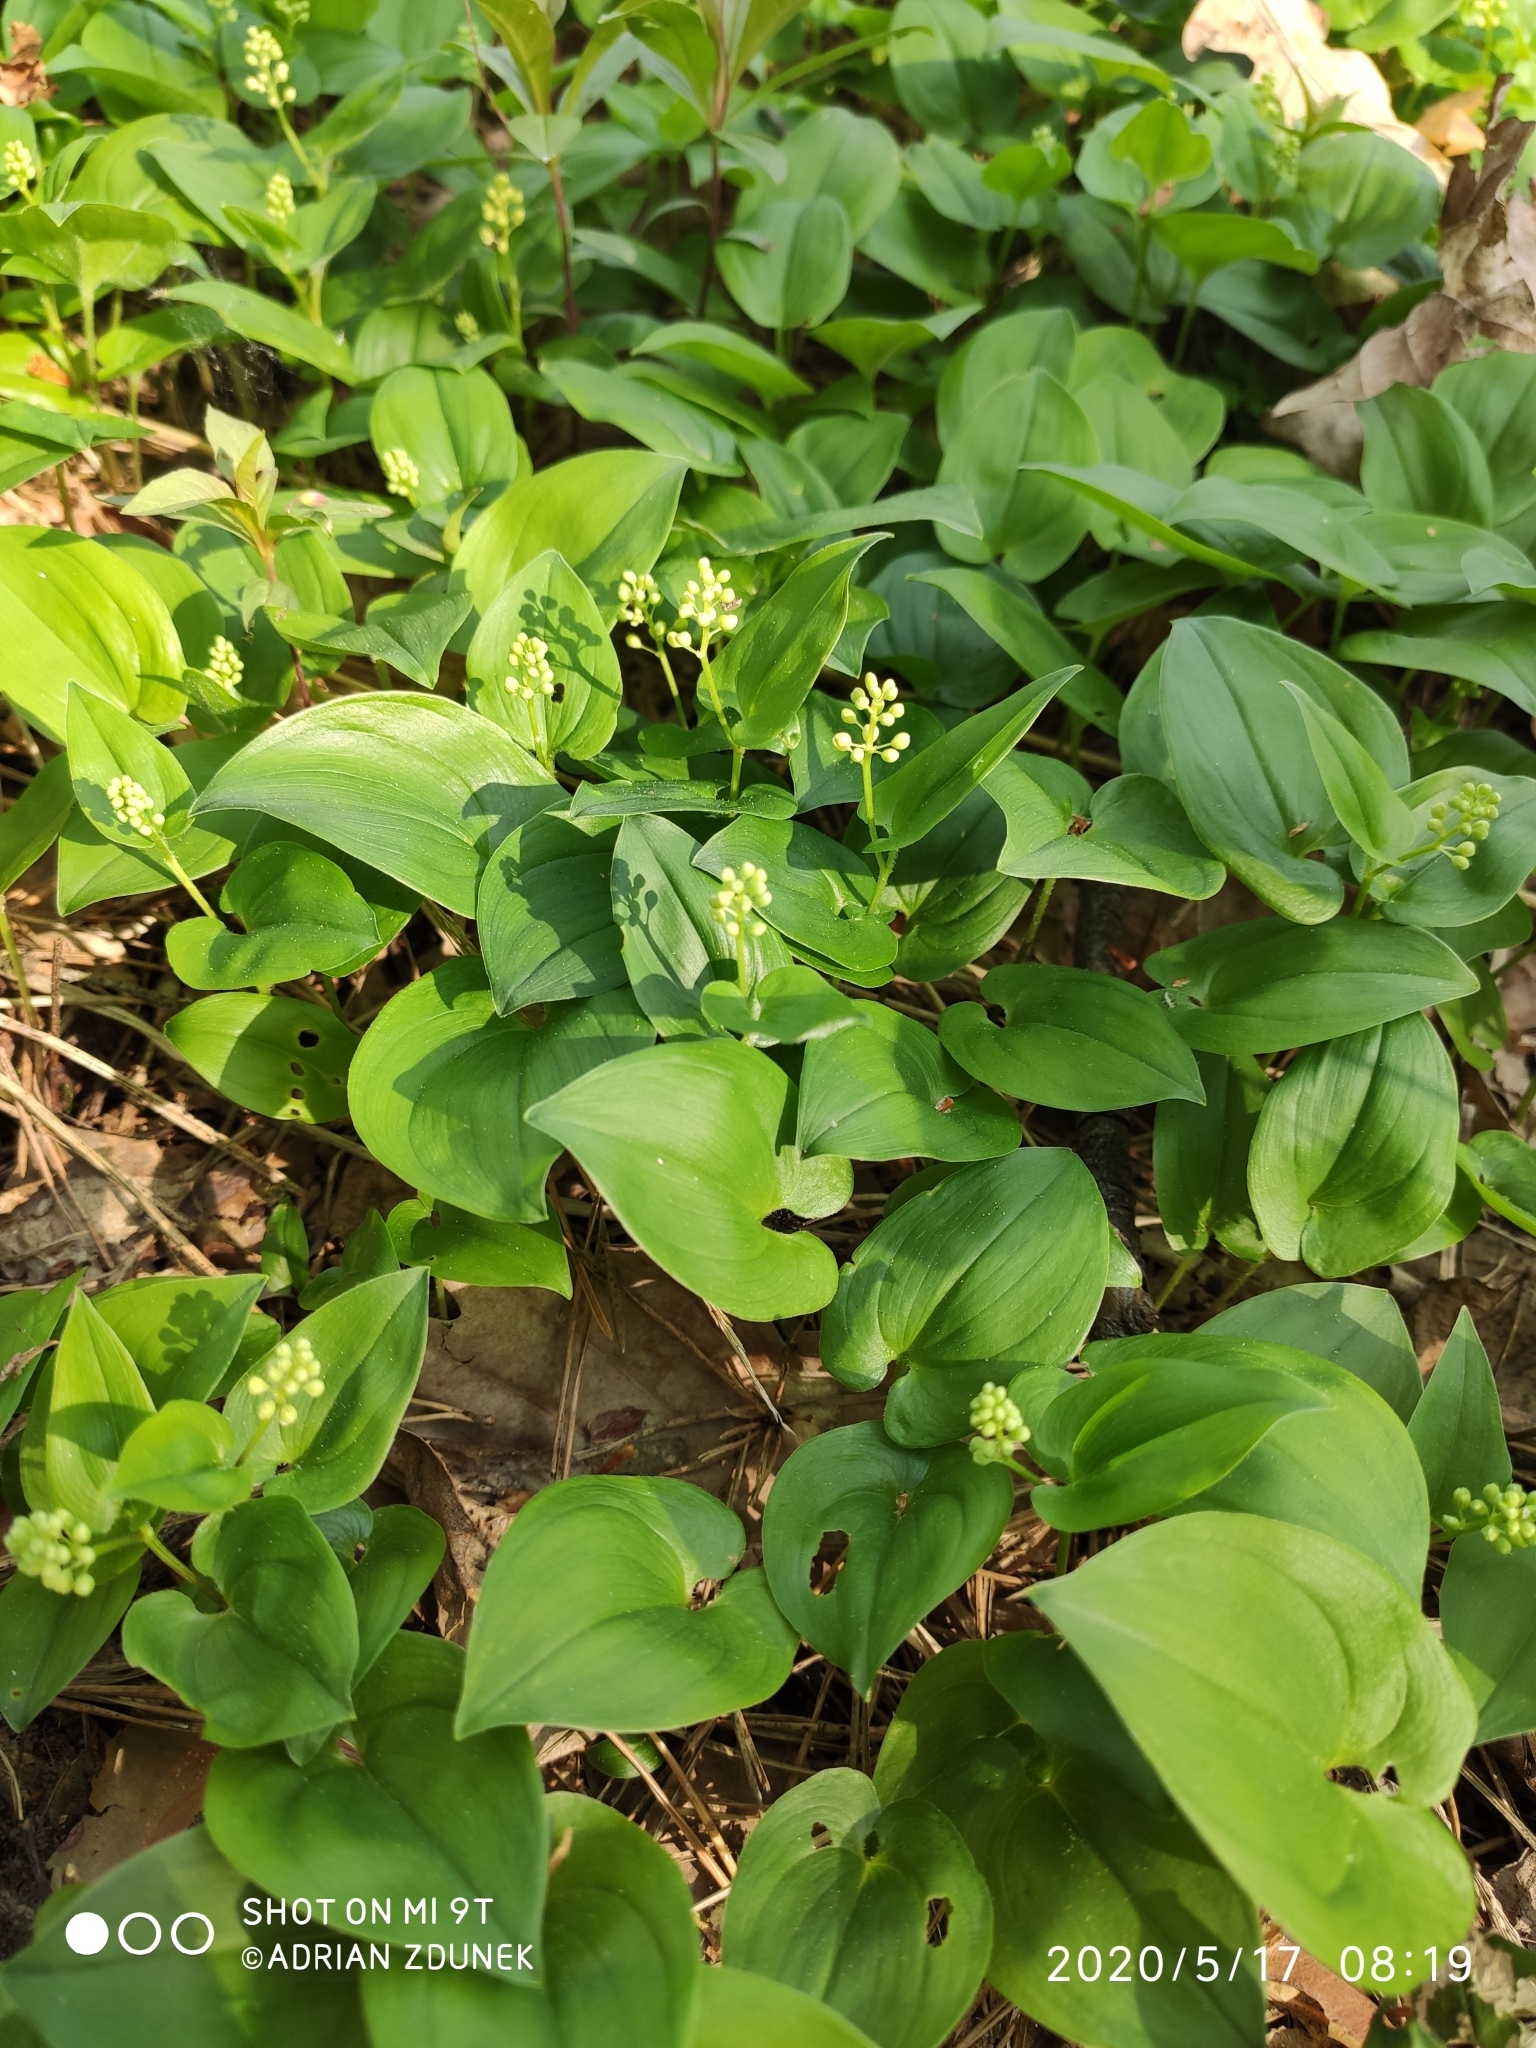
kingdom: Plantae
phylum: Tracheophyta
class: Liliopsida
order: Asparagales
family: Asparagaceae
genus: Maianthemum
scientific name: Maianthemum bifolium
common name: May lily
